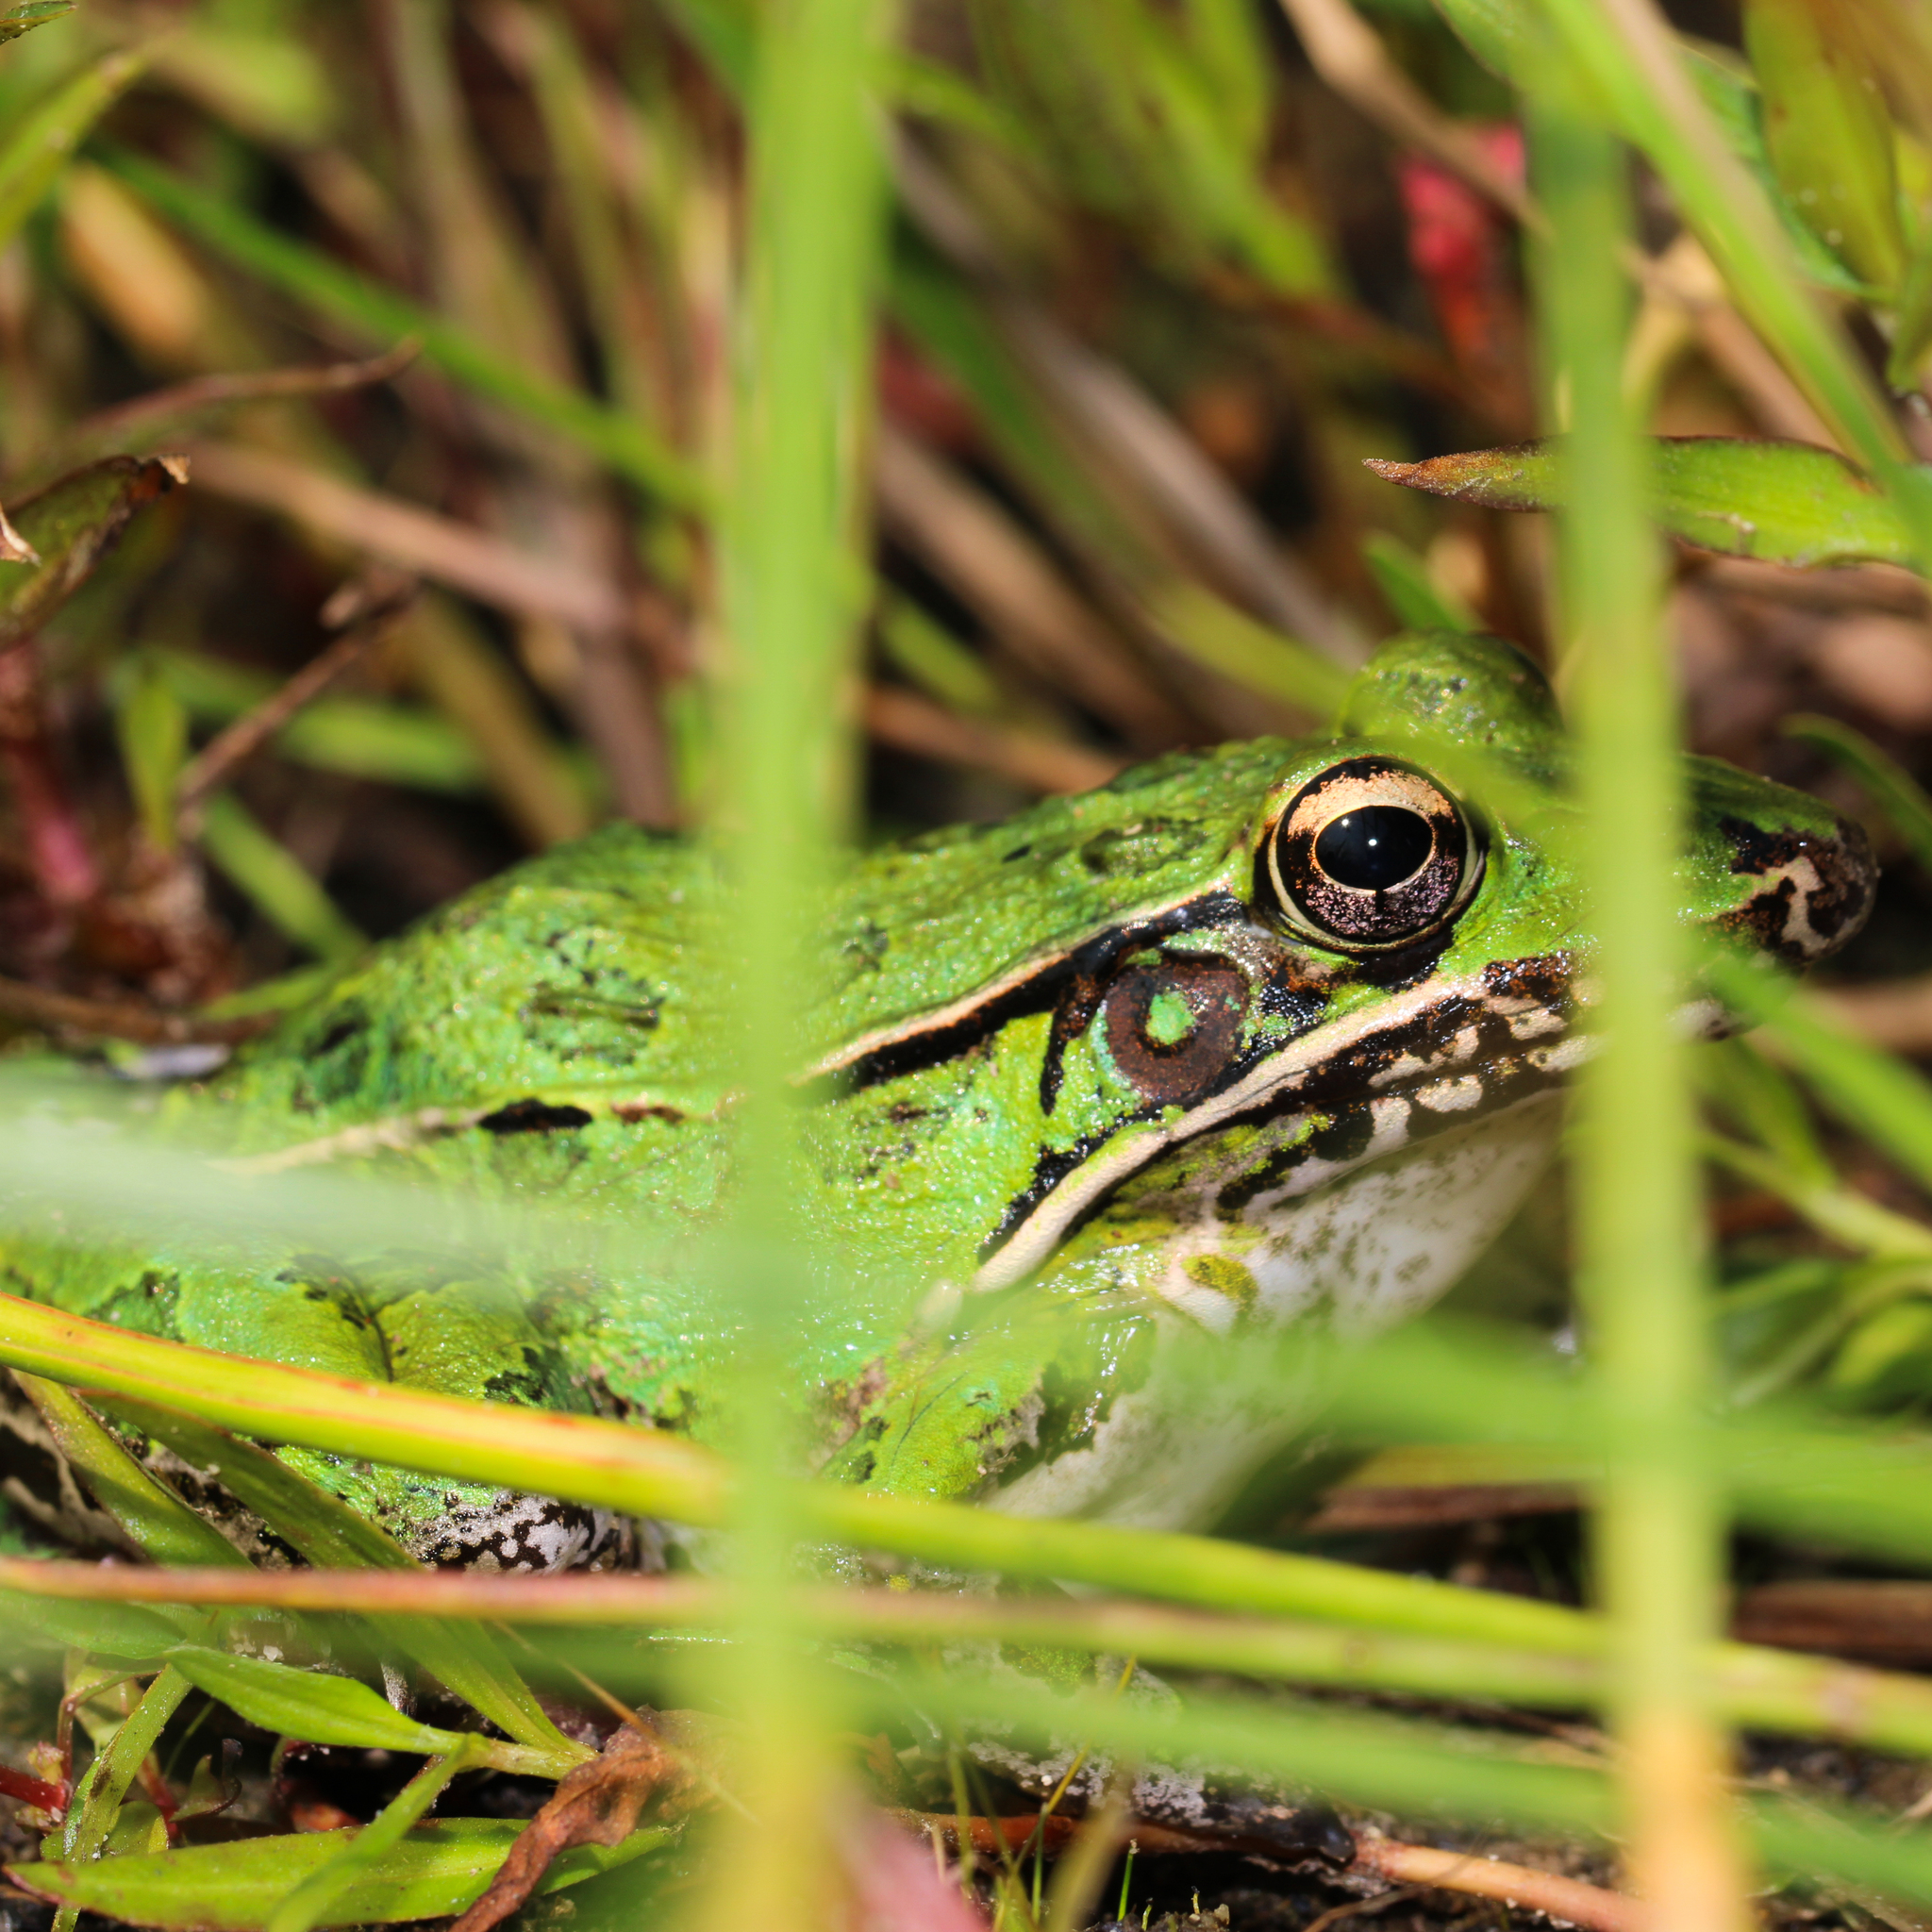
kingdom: Animalia
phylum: Chordata
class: Amphibia
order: Anura
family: Ranidae
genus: Lithobates
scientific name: Lithobates sphenocephalus
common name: Southern leopard frog
